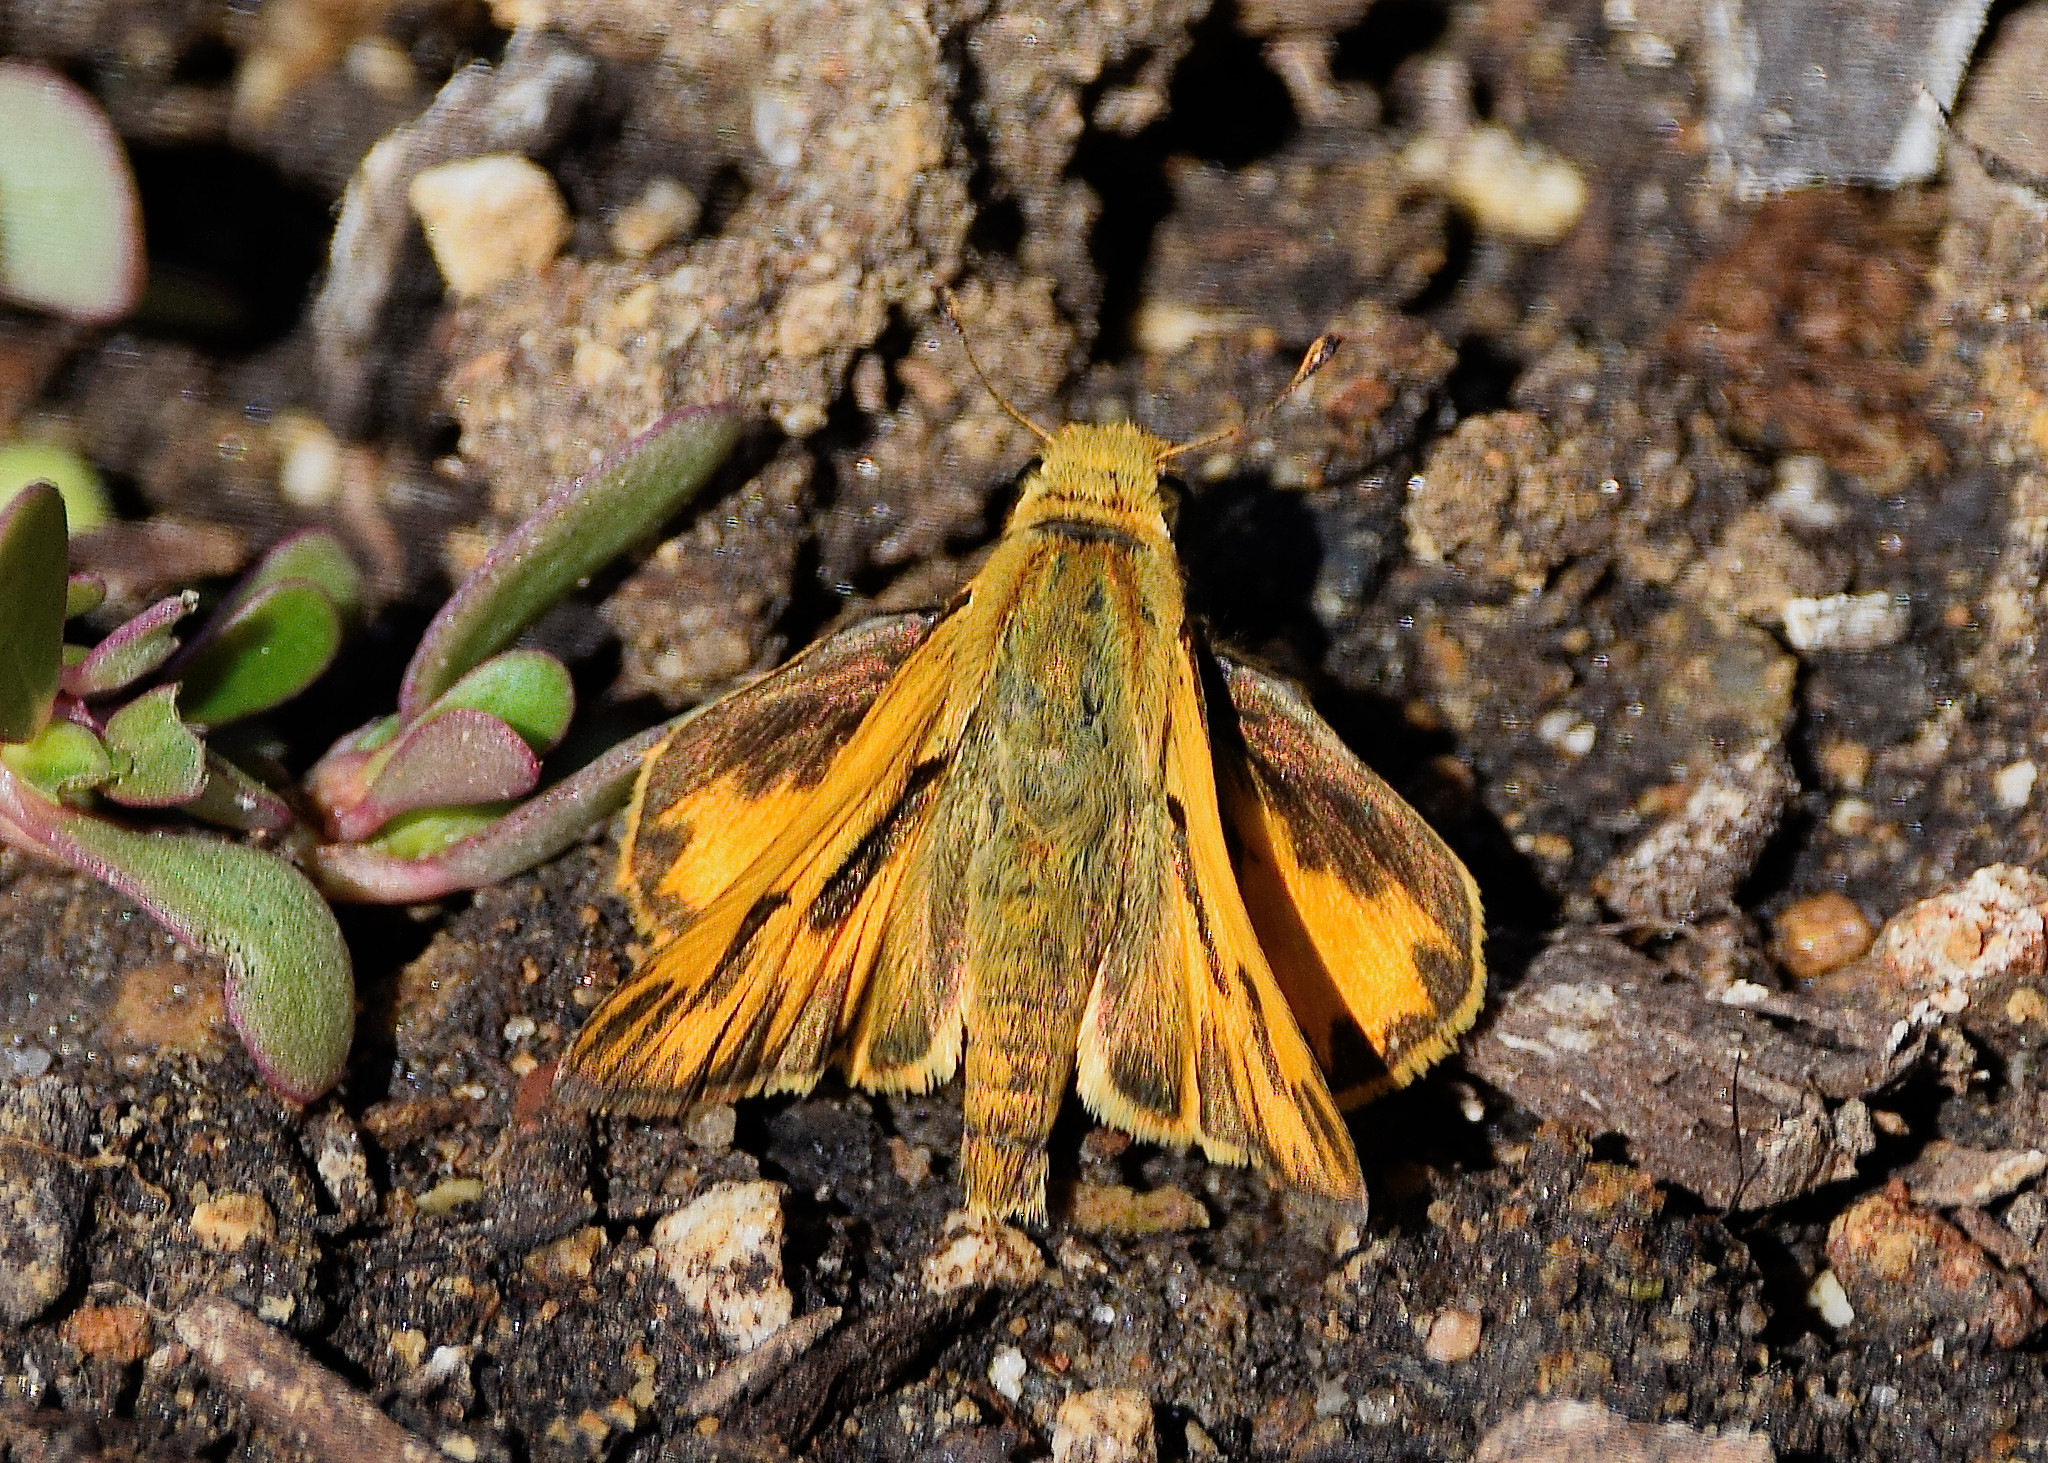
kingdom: Animalia
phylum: Arthropoda
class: Insecta
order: Lepidoptera
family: Hesperiidae
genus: Hylephila
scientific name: Hylephila phyleus
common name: Fiery skipper
